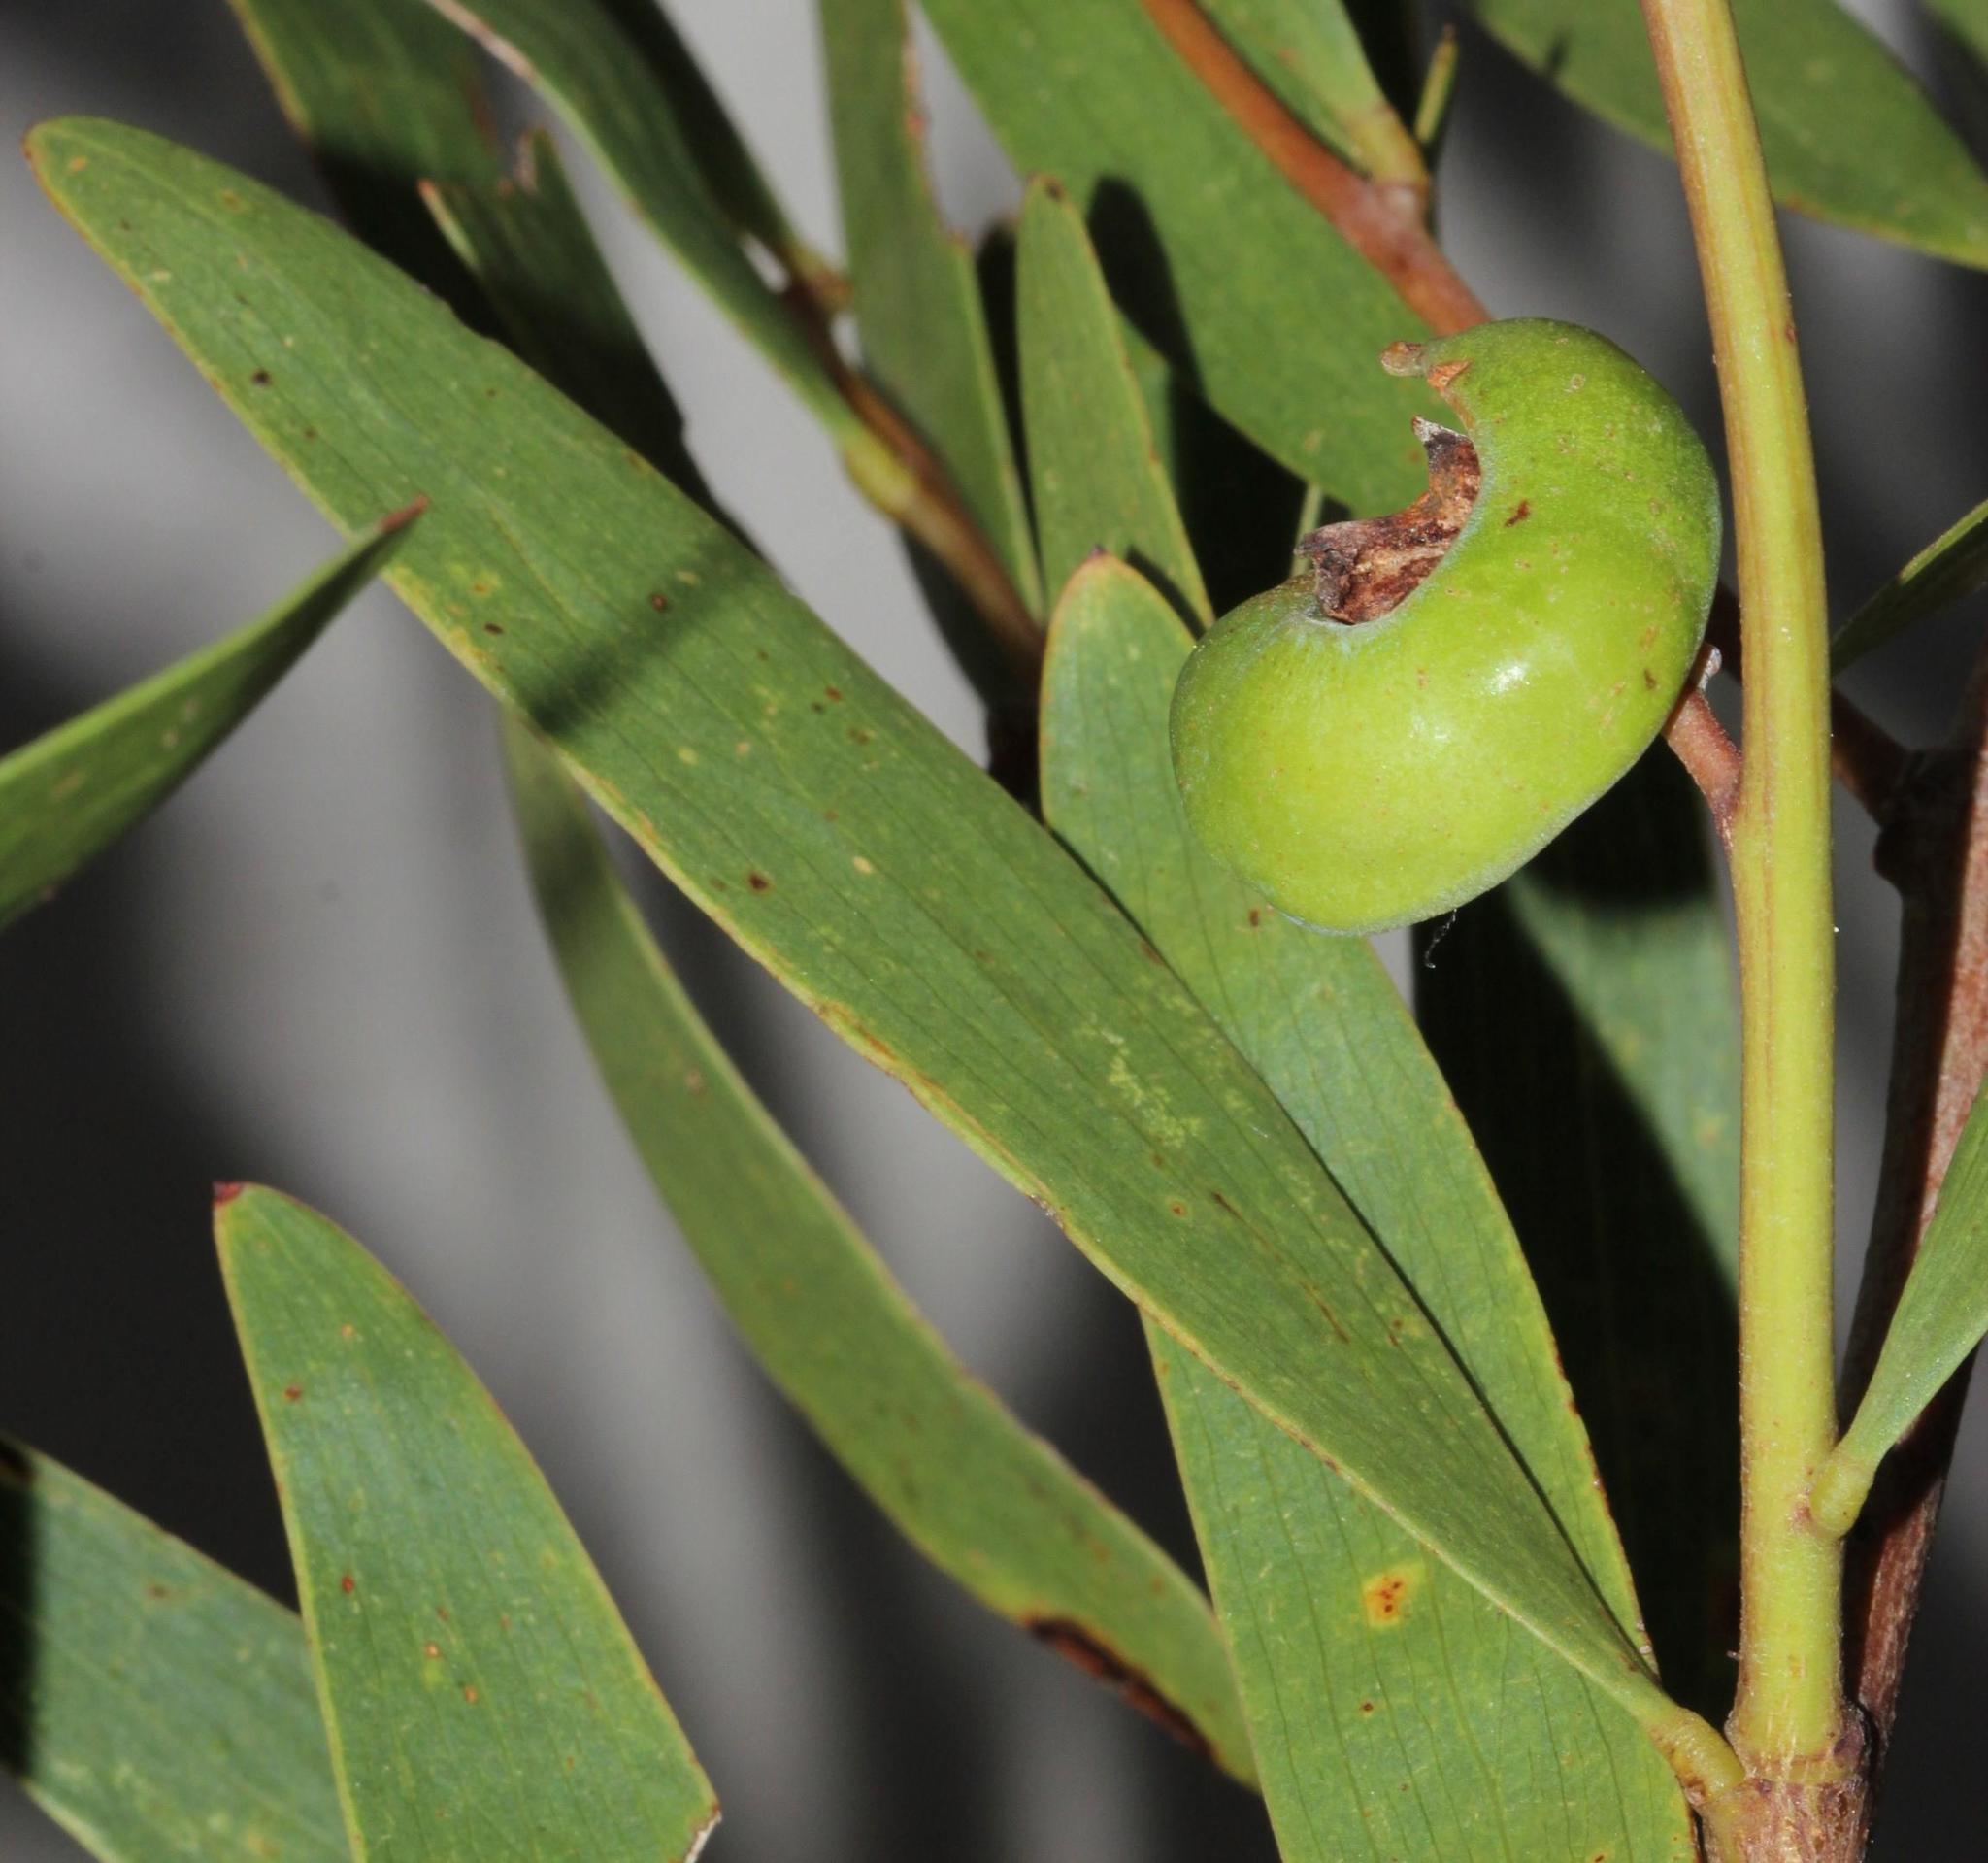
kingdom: Plantae
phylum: Tracheophyta
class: Magnoliopsida
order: Fabales
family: Fabaceae
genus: Acacia
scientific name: Acacia cyclops
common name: Coastal wattle
